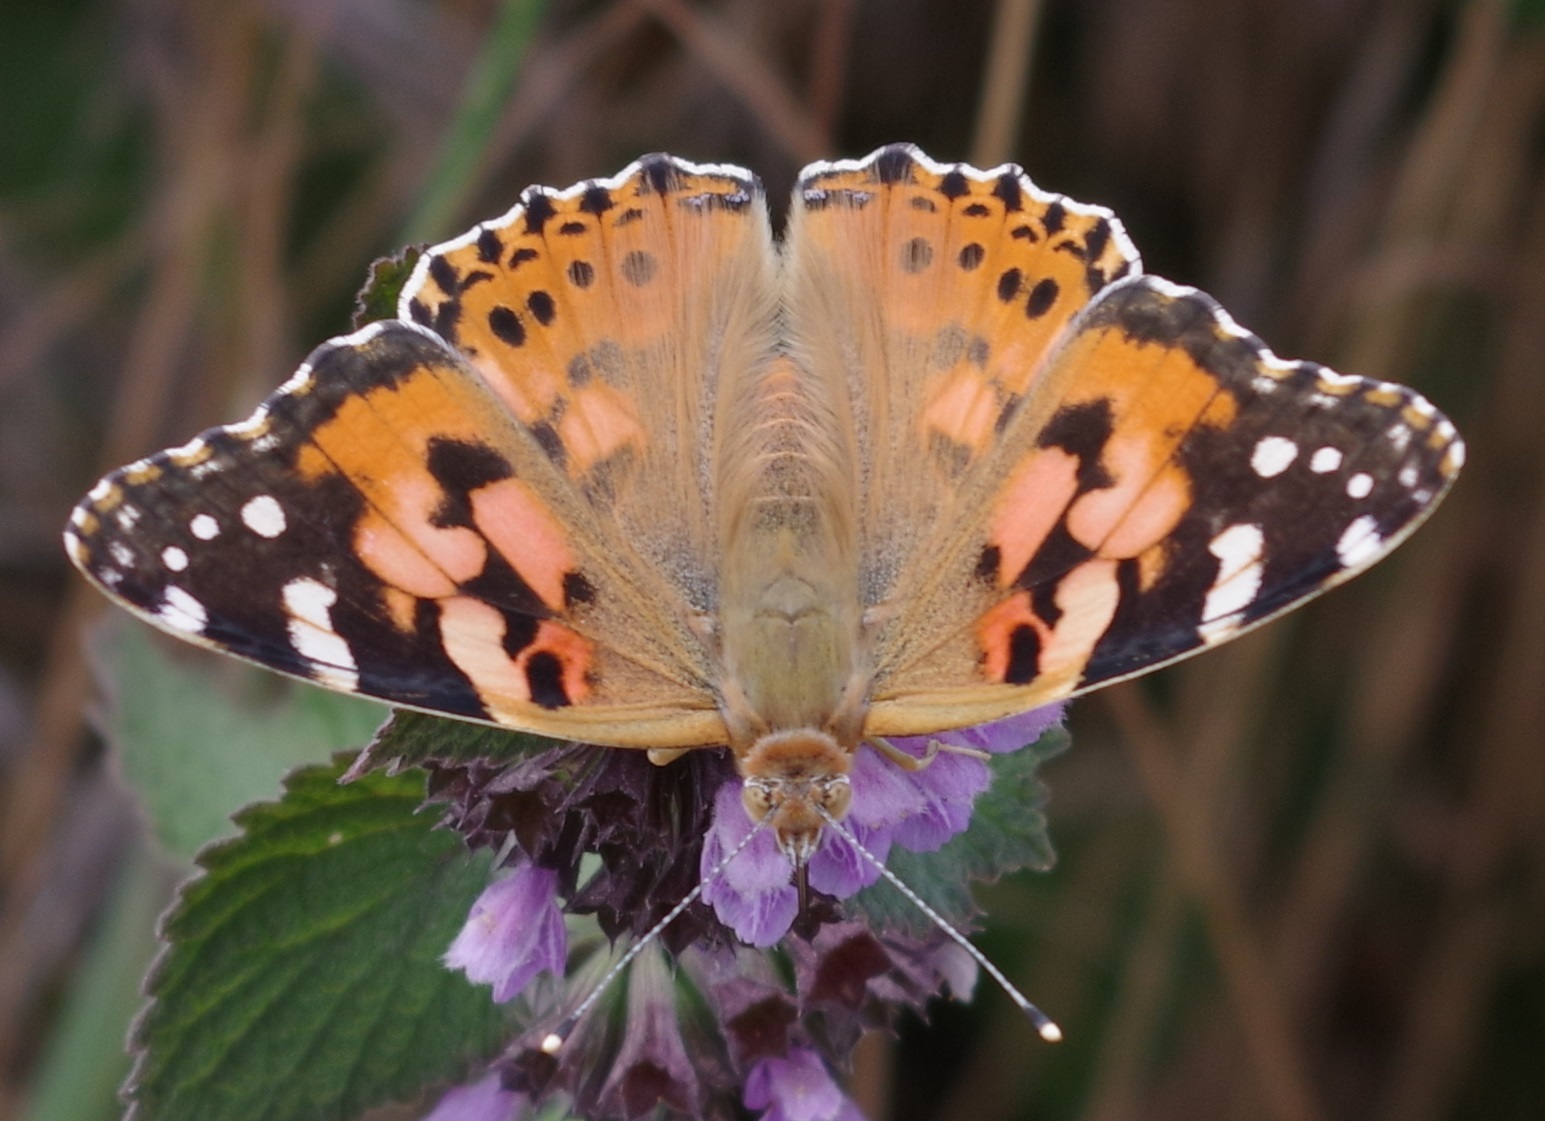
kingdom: Animalia
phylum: Arthropoda
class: Insecta
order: Lepidoptera
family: Nymphalidae
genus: Vanessa
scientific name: Vanessa cardui
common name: Painted lady
